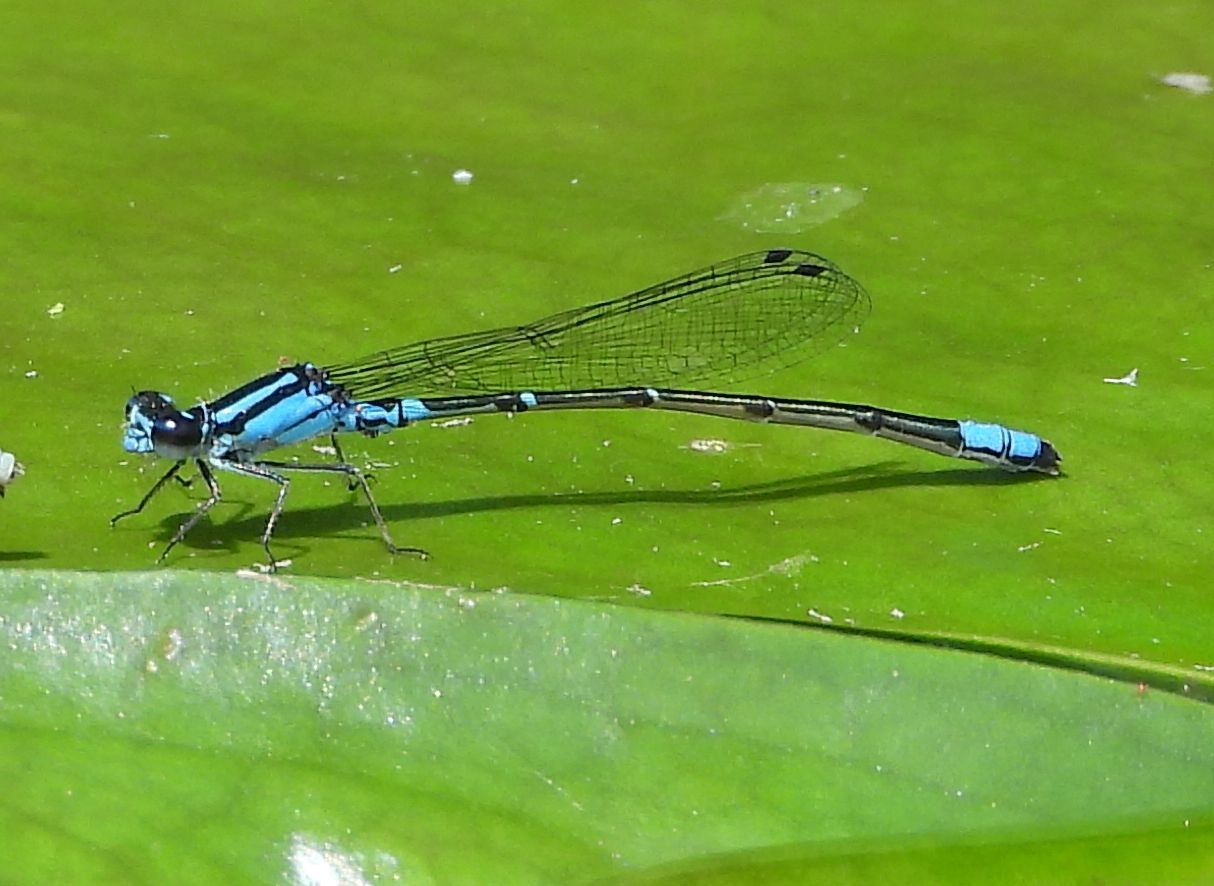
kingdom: Animalia
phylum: Arthropoda
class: Insecta
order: Odonata
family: Coenagrionidae
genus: Enallagma
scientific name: Enallagma geminatum
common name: Skimming bluet
